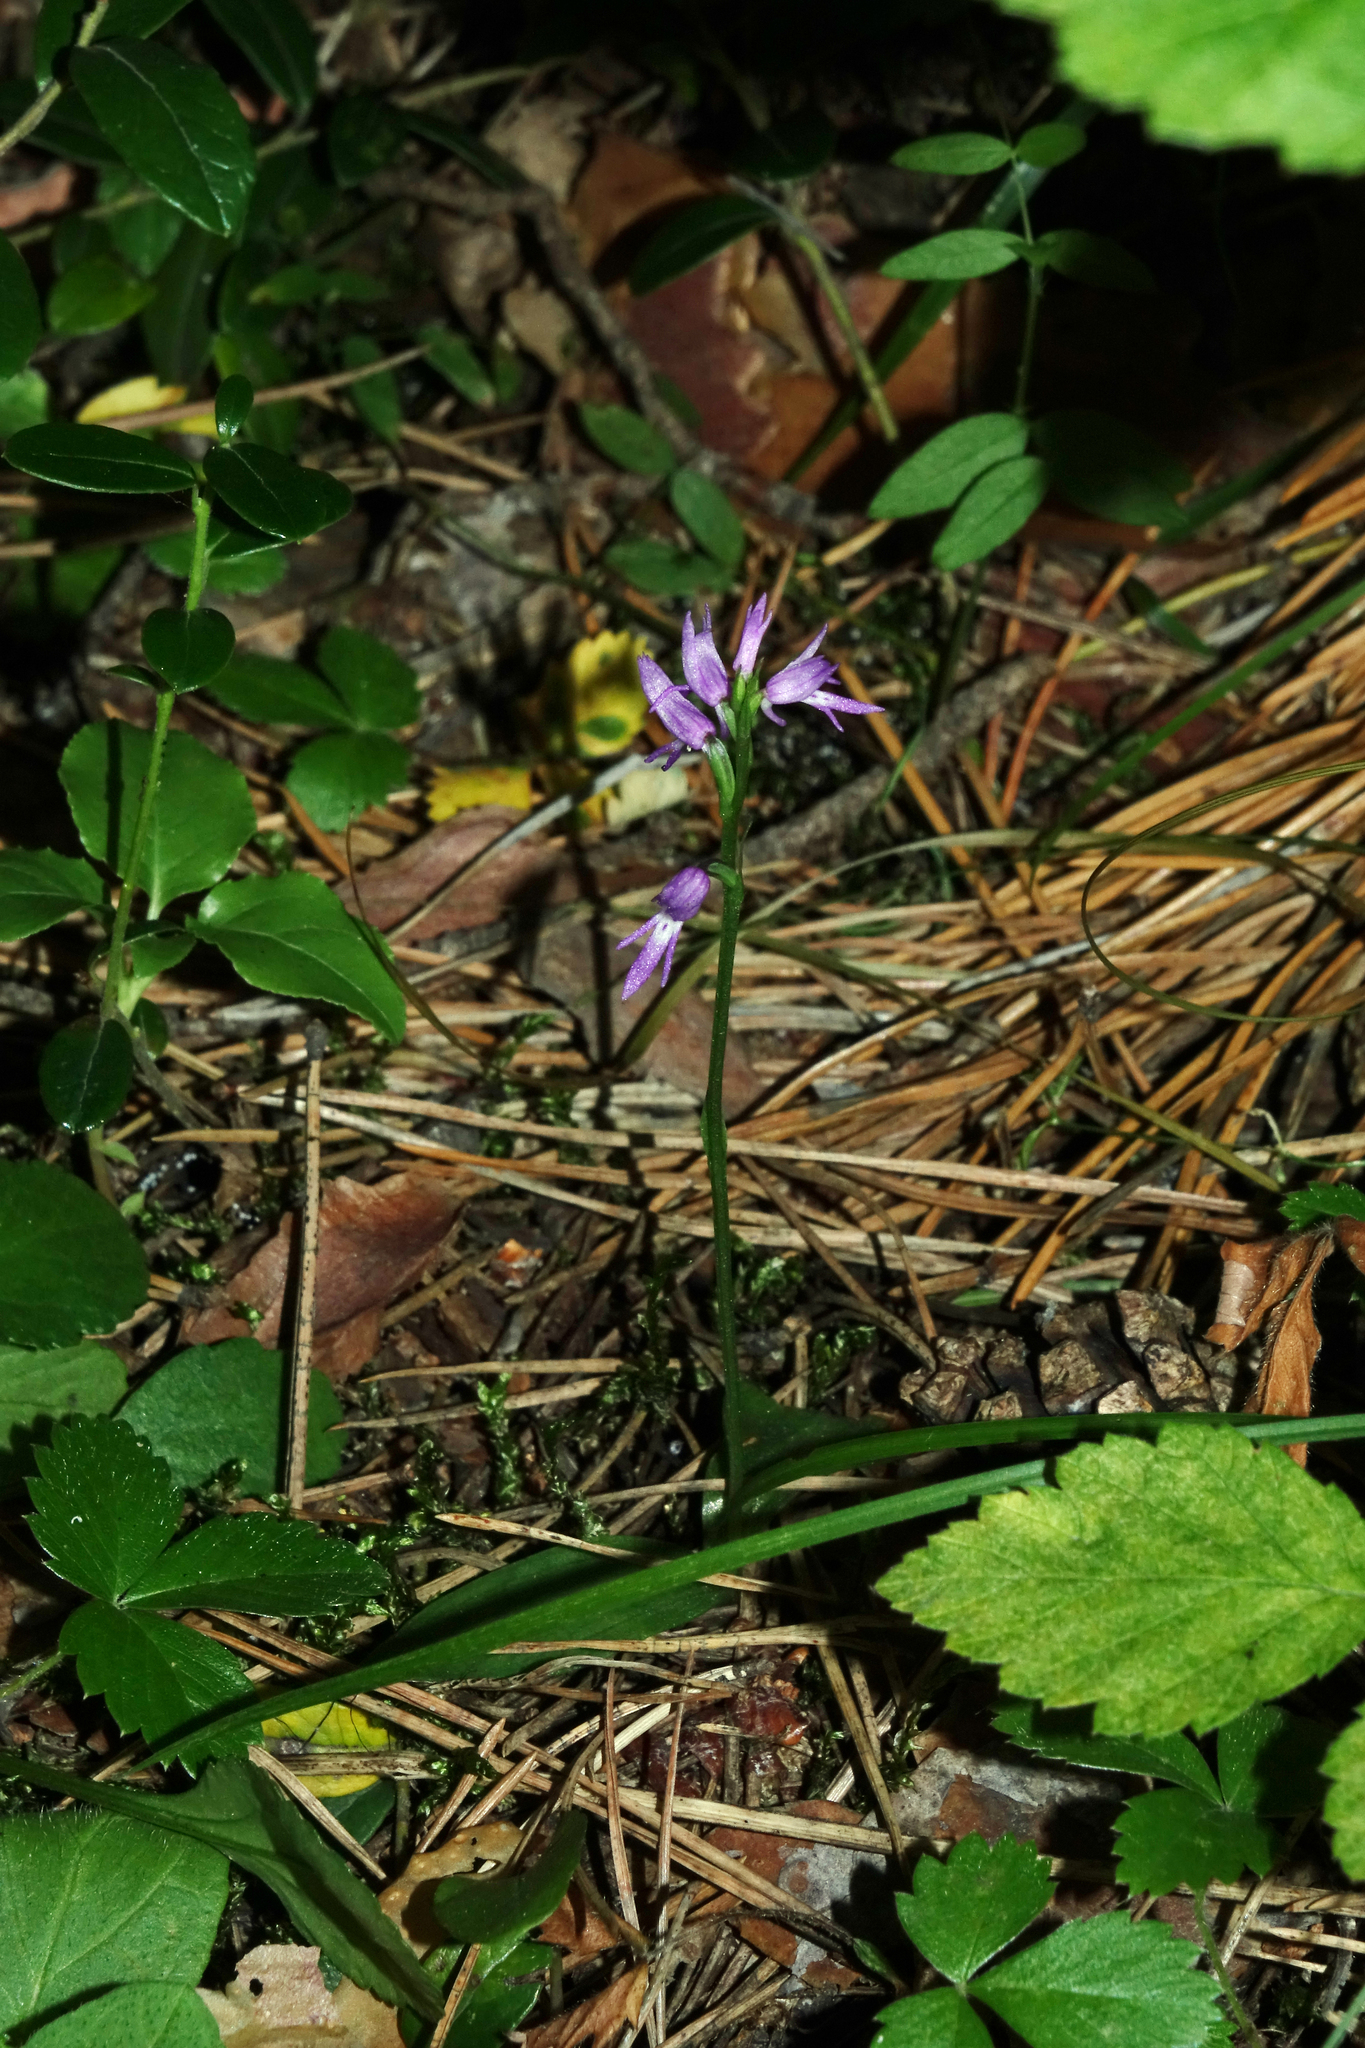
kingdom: Plantae
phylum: Tracheophyta
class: Liliopsida
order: Asparagales
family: Orchidaceae
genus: Hemipilia
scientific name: Hemipilia cucullata
